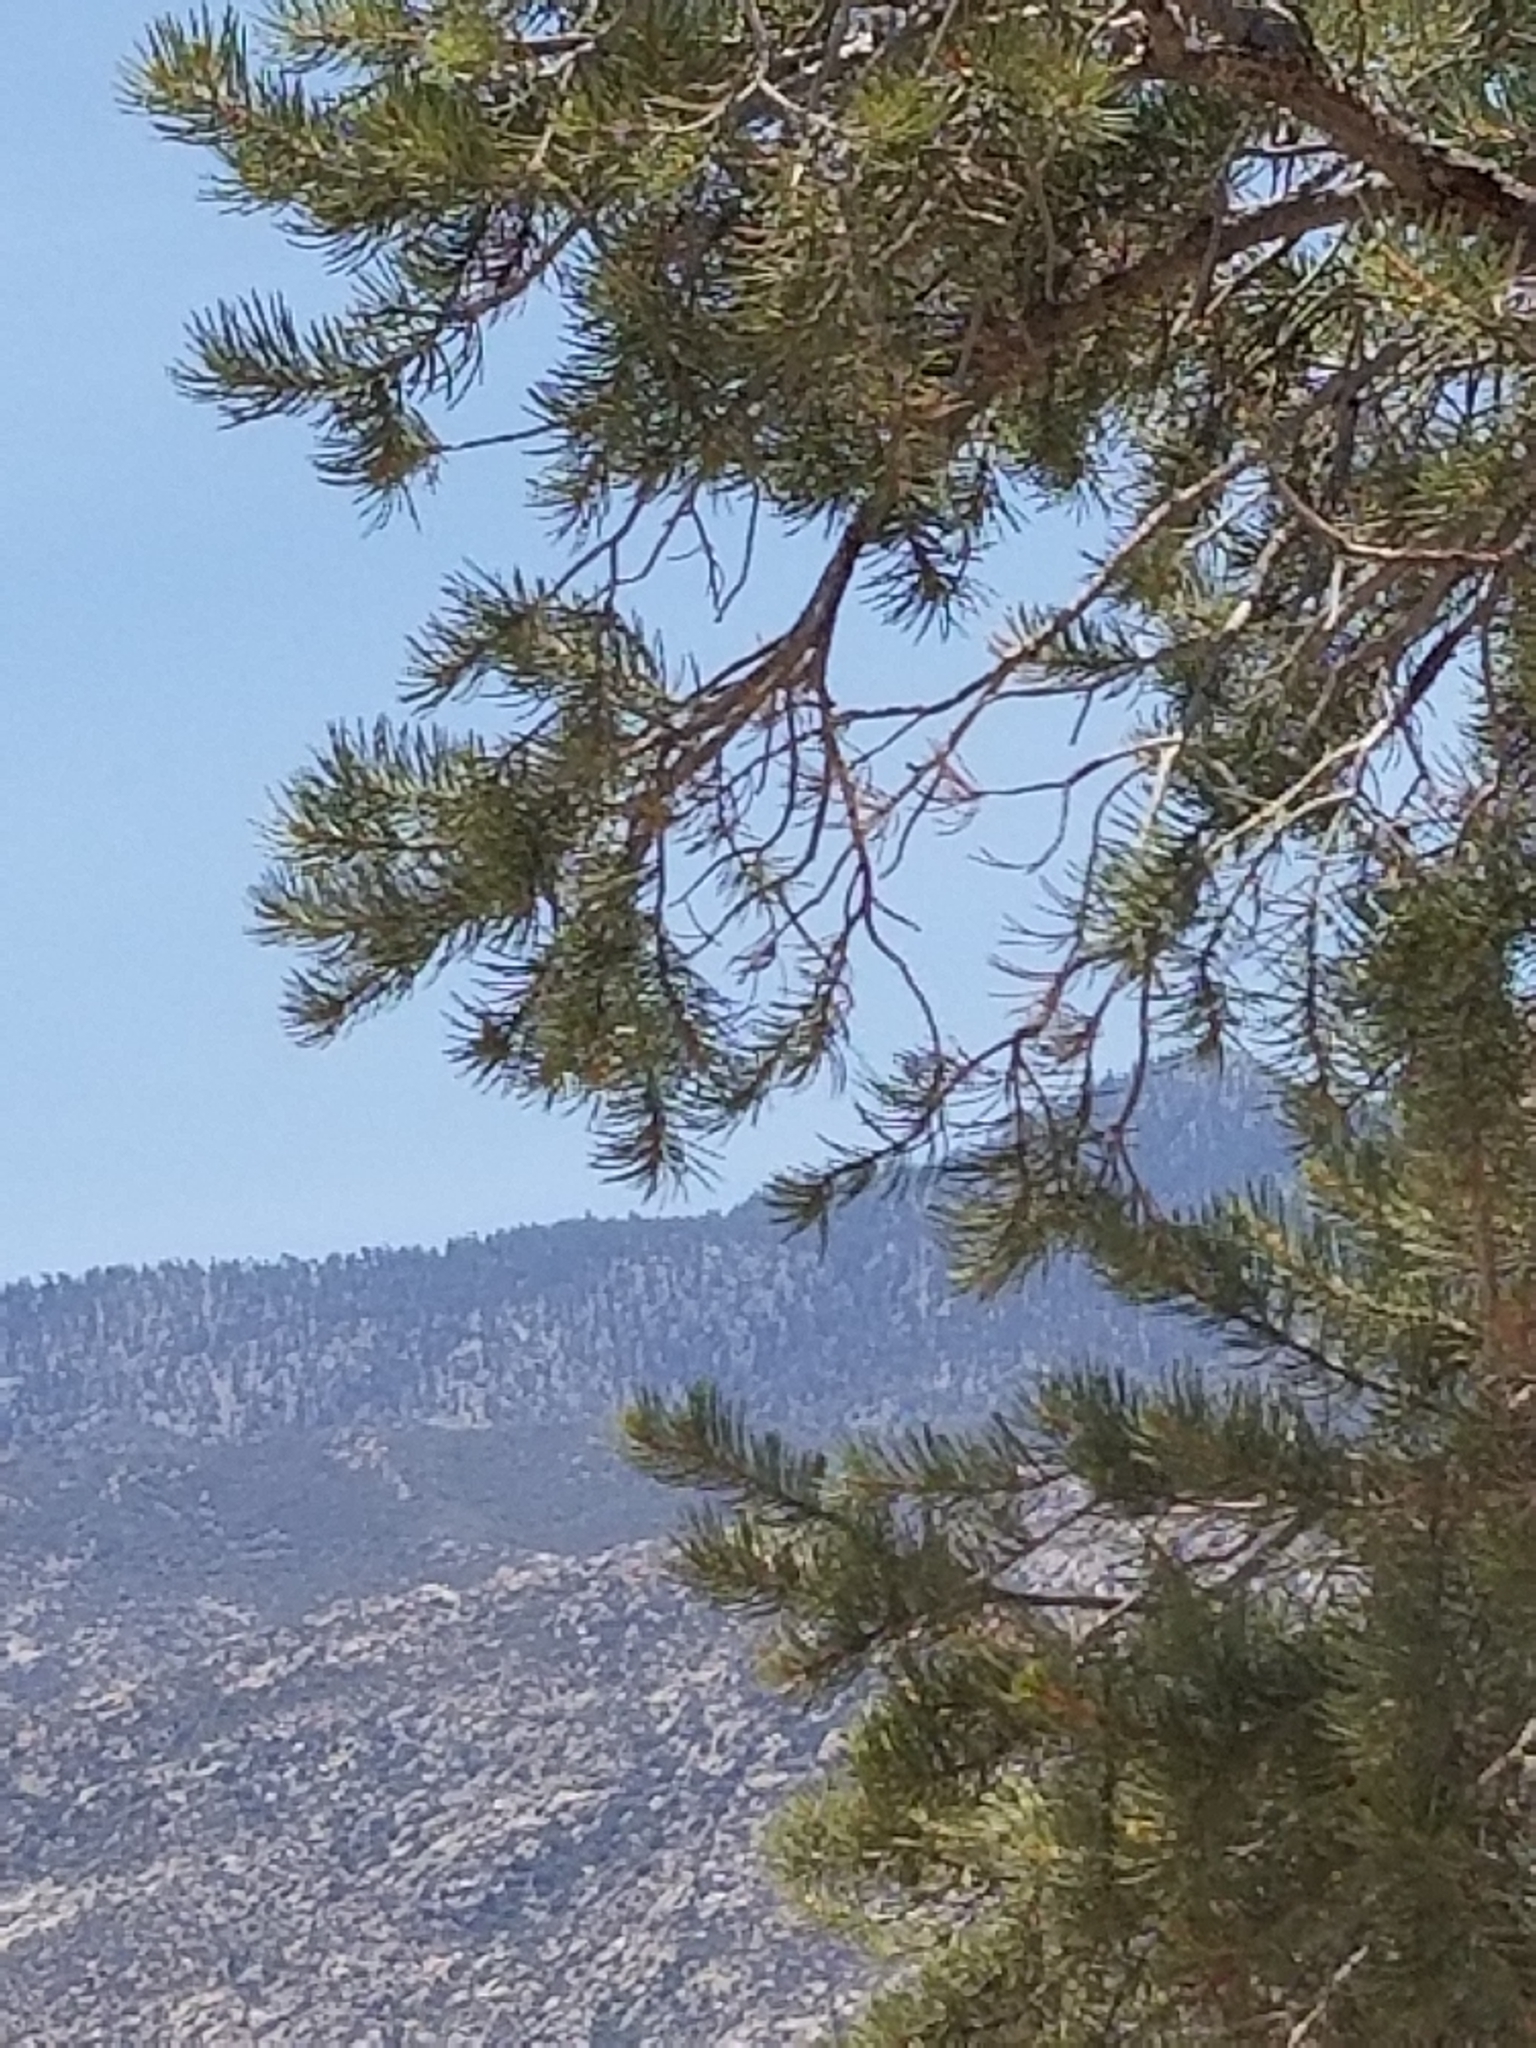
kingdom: Plantae
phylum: Tracheophyta
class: Pinopsida
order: Pinales
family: Pinaceae
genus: Pinus
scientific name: Pinus monophylla
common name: One-leaved nut pine
